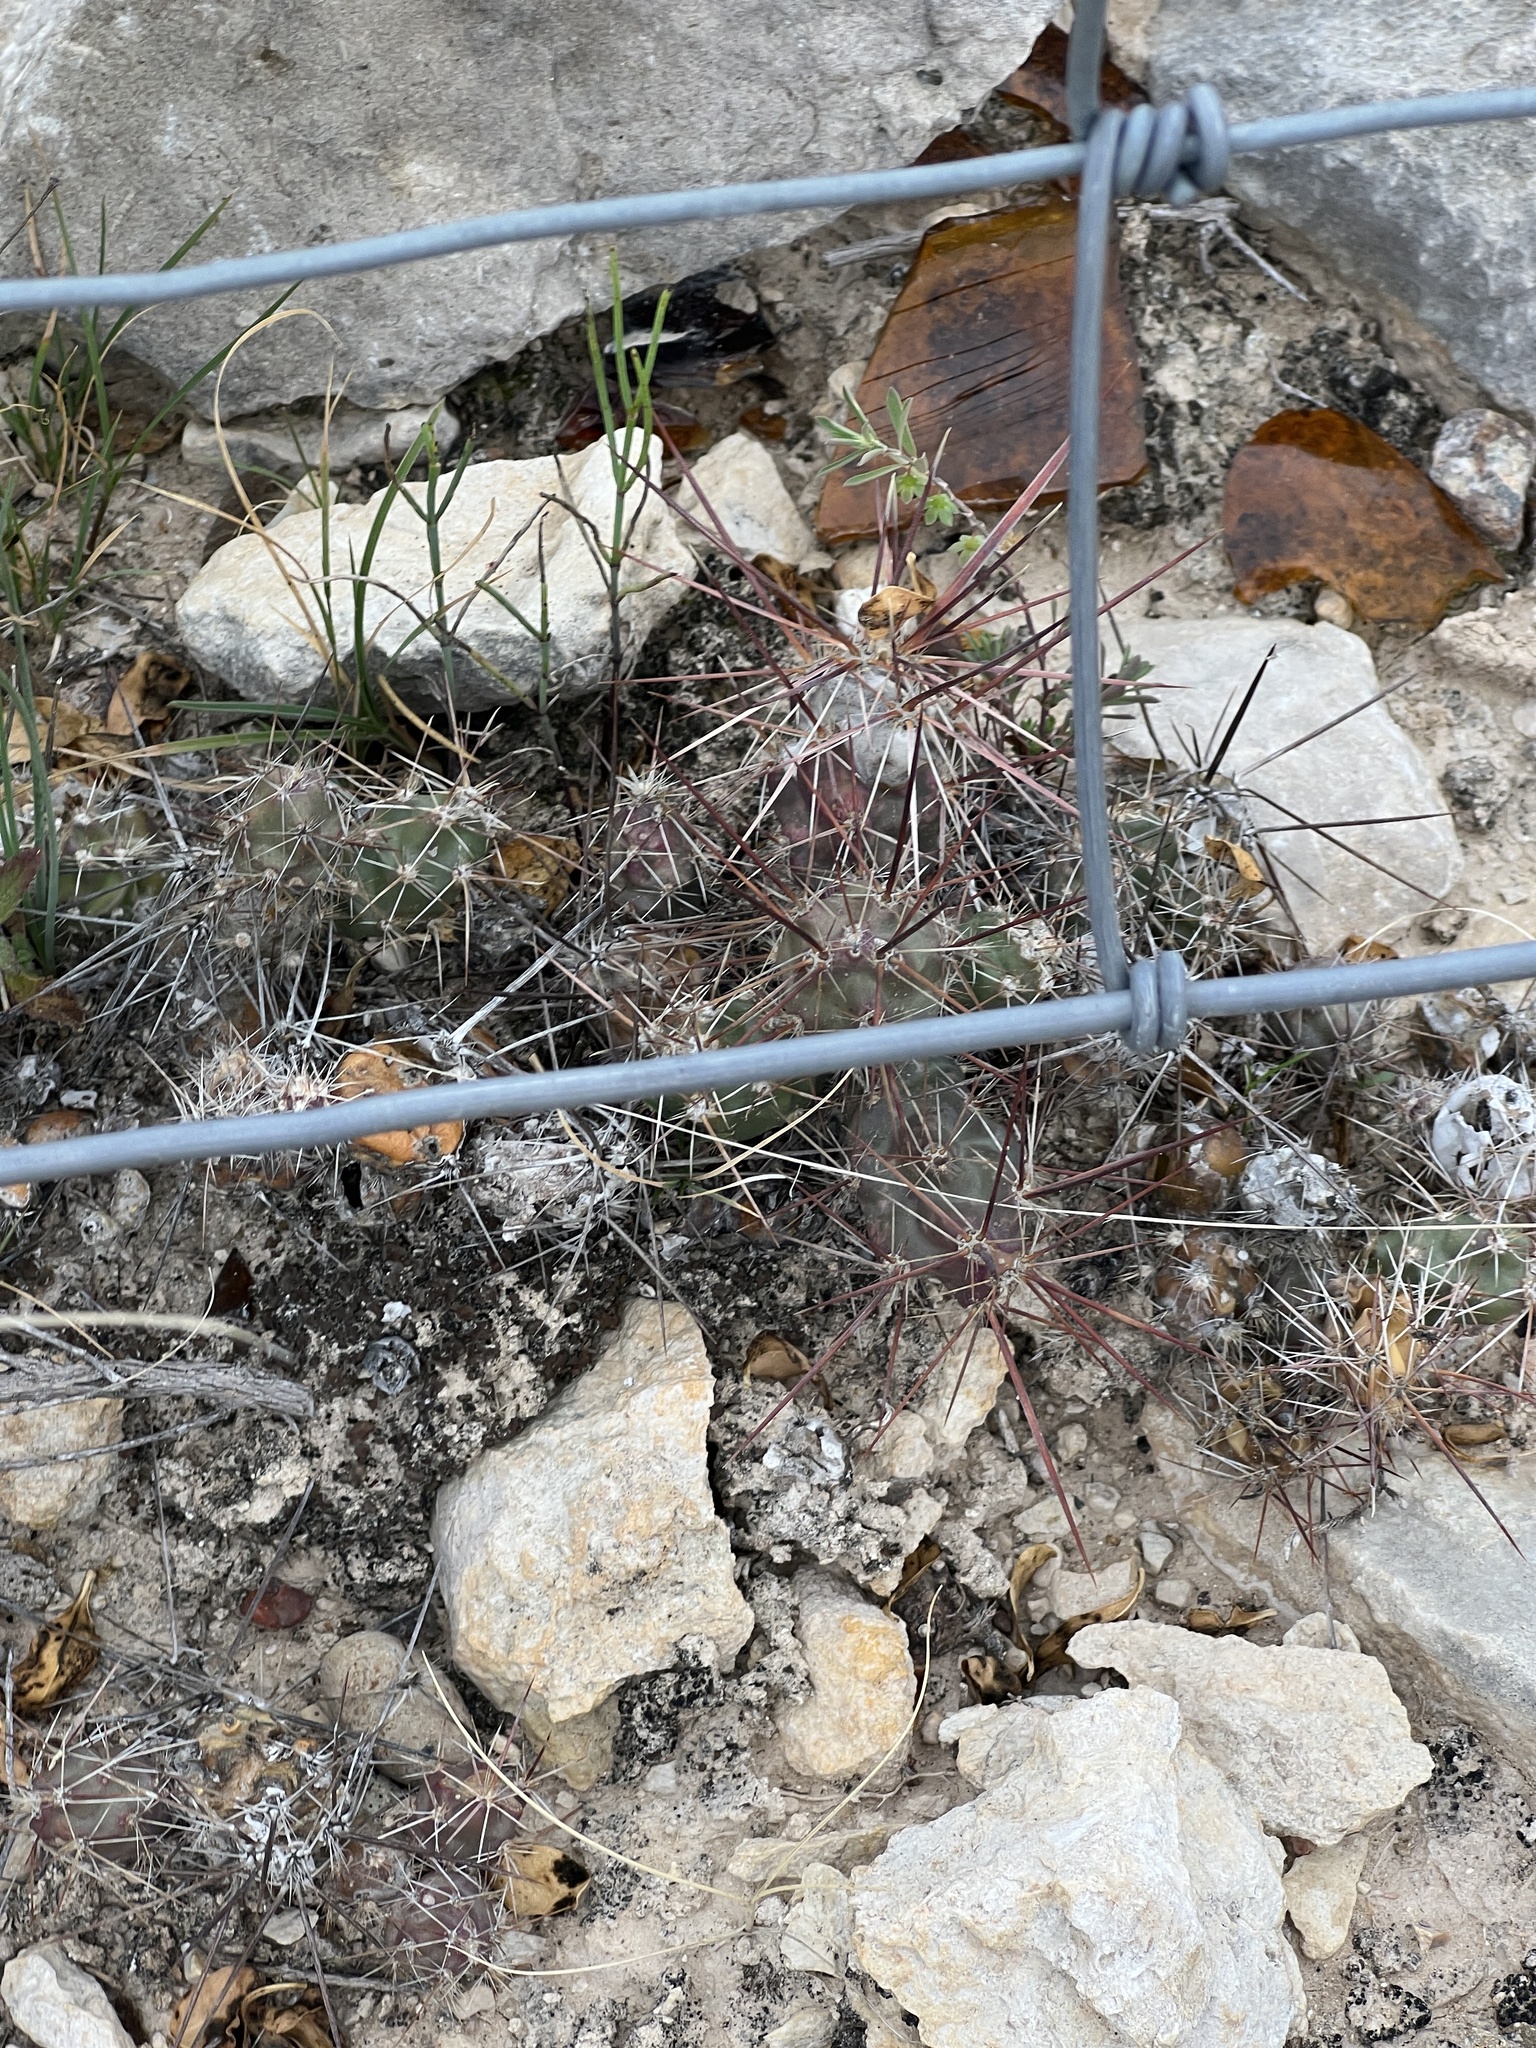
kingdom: Plantae
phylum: Tracheophyta
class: Magnoliopsida
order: Caryophyllales
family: Cactaceae
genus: Grusonia
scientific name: Grusonia schottii
